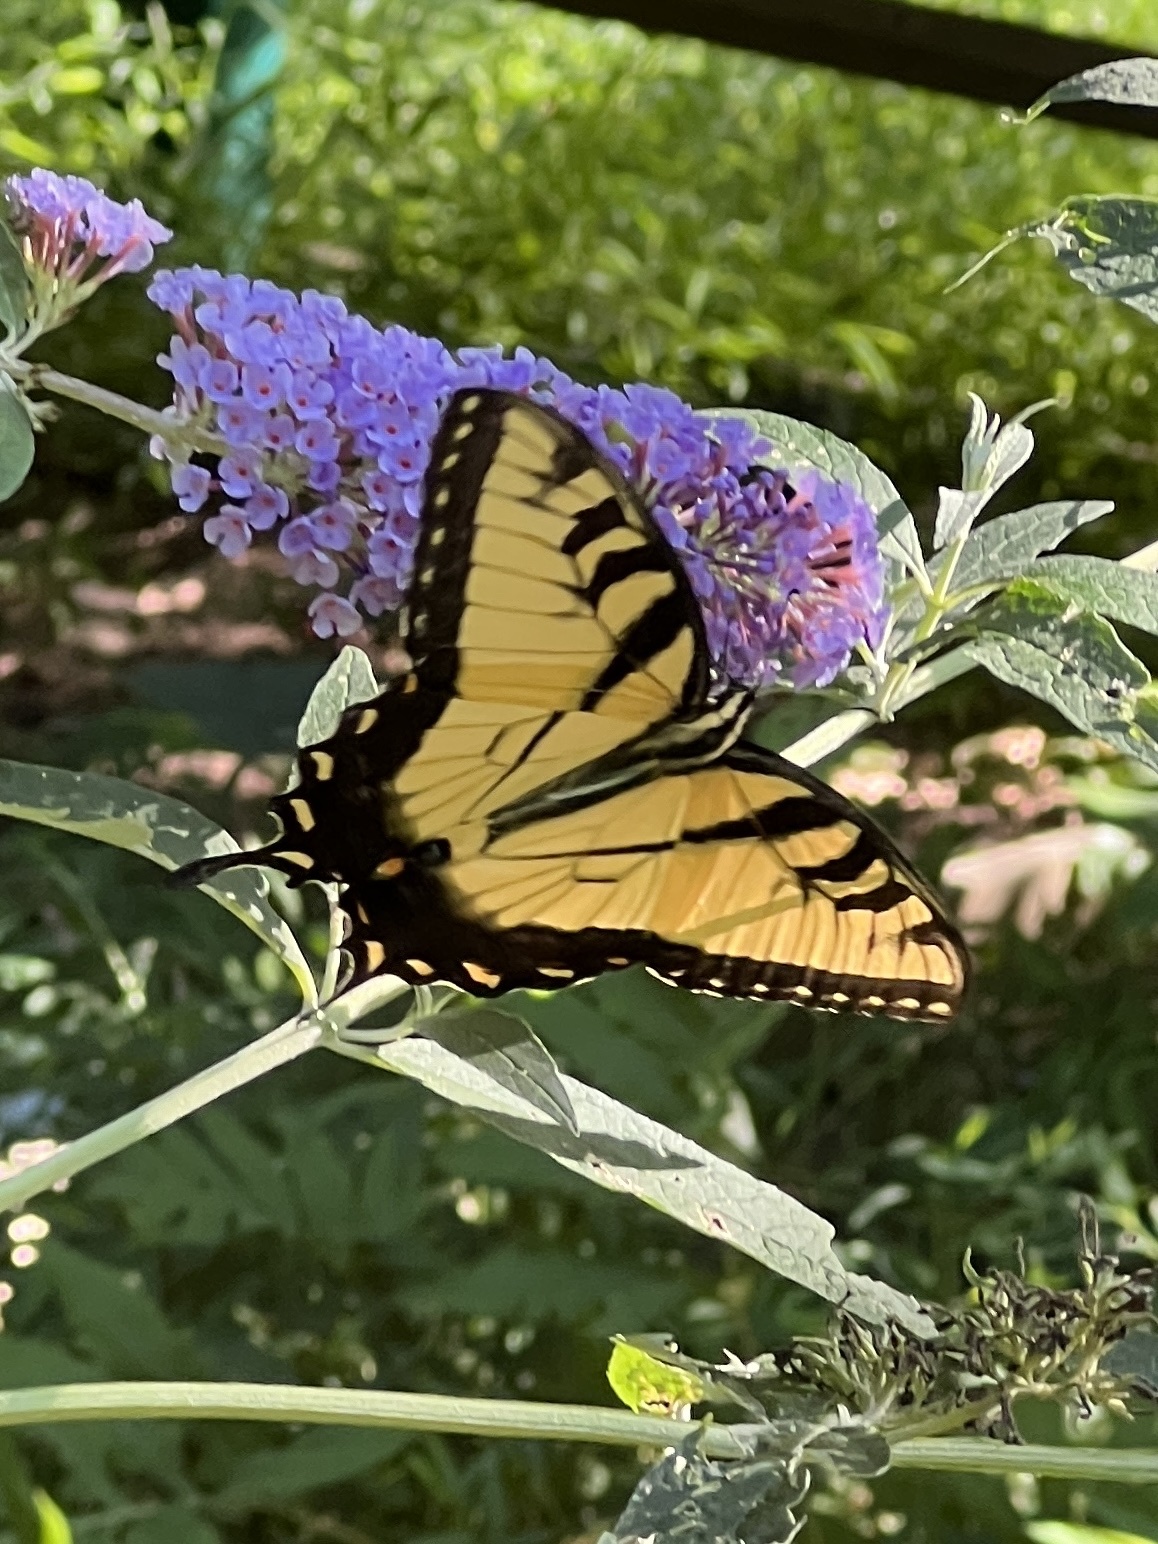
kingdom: Animalia
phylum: Arthropoda
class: Insecta
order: Lepidoptera
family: Papilionidae
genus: Papilio
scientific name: Papilio glaucus
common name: Tiger swallowtail
